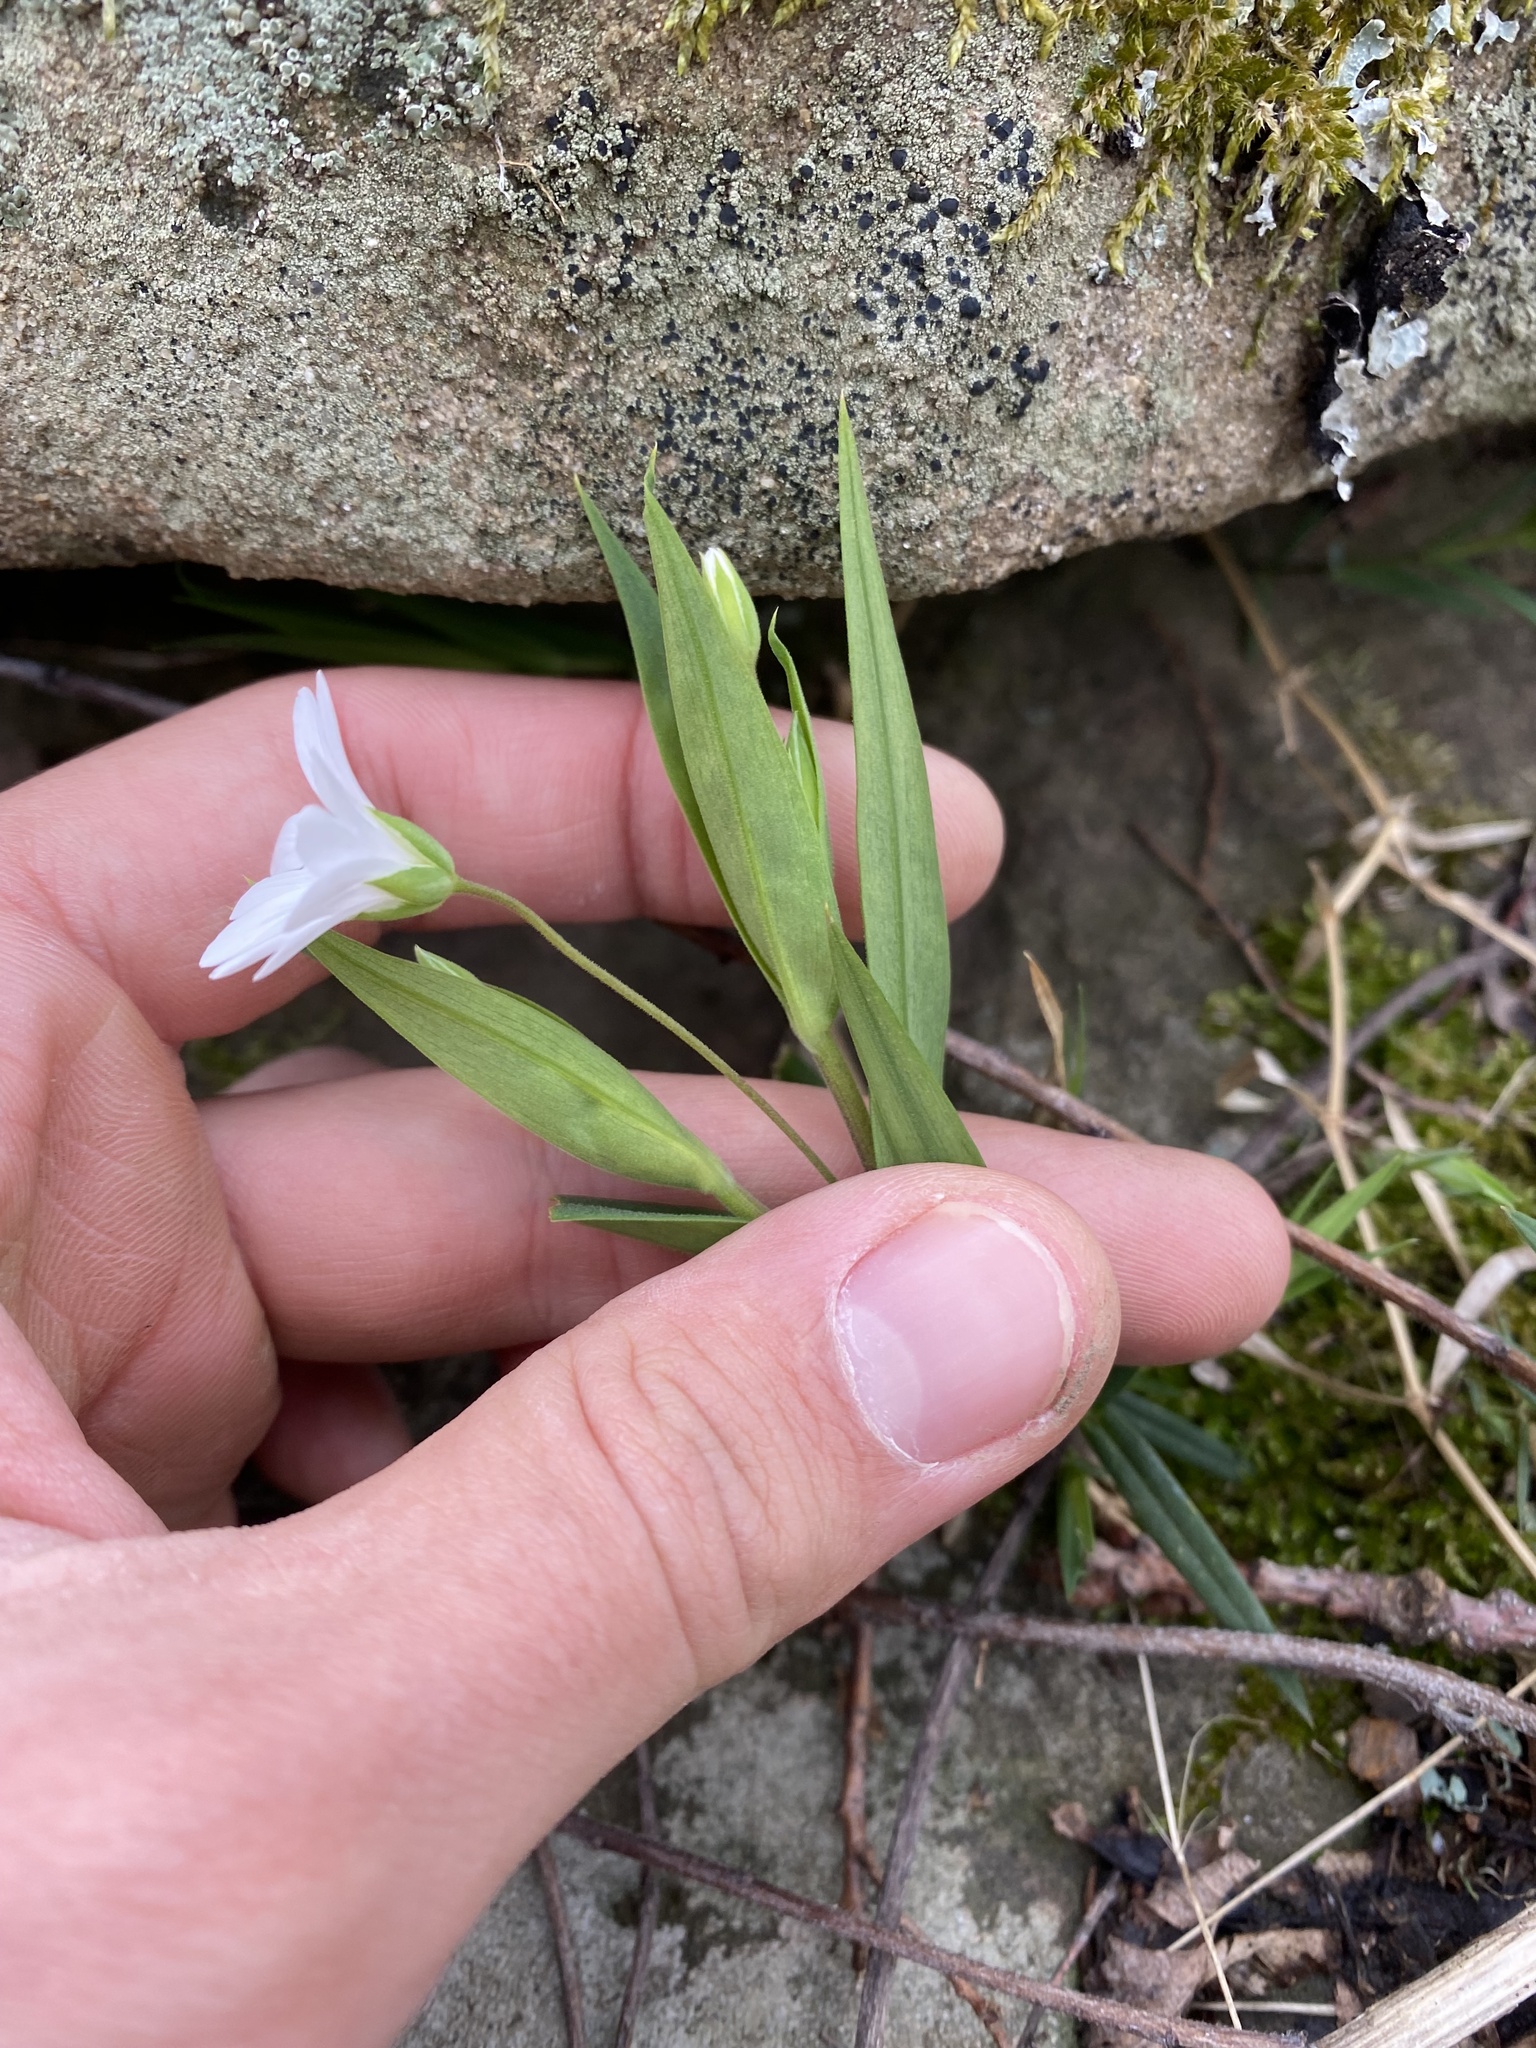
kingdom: Plantae
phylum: Tracheophyta
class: Magnoliopsida
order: Caryophyllales
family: Caryophyllaceae
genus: Rabelera
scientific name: Rabelera holostea
